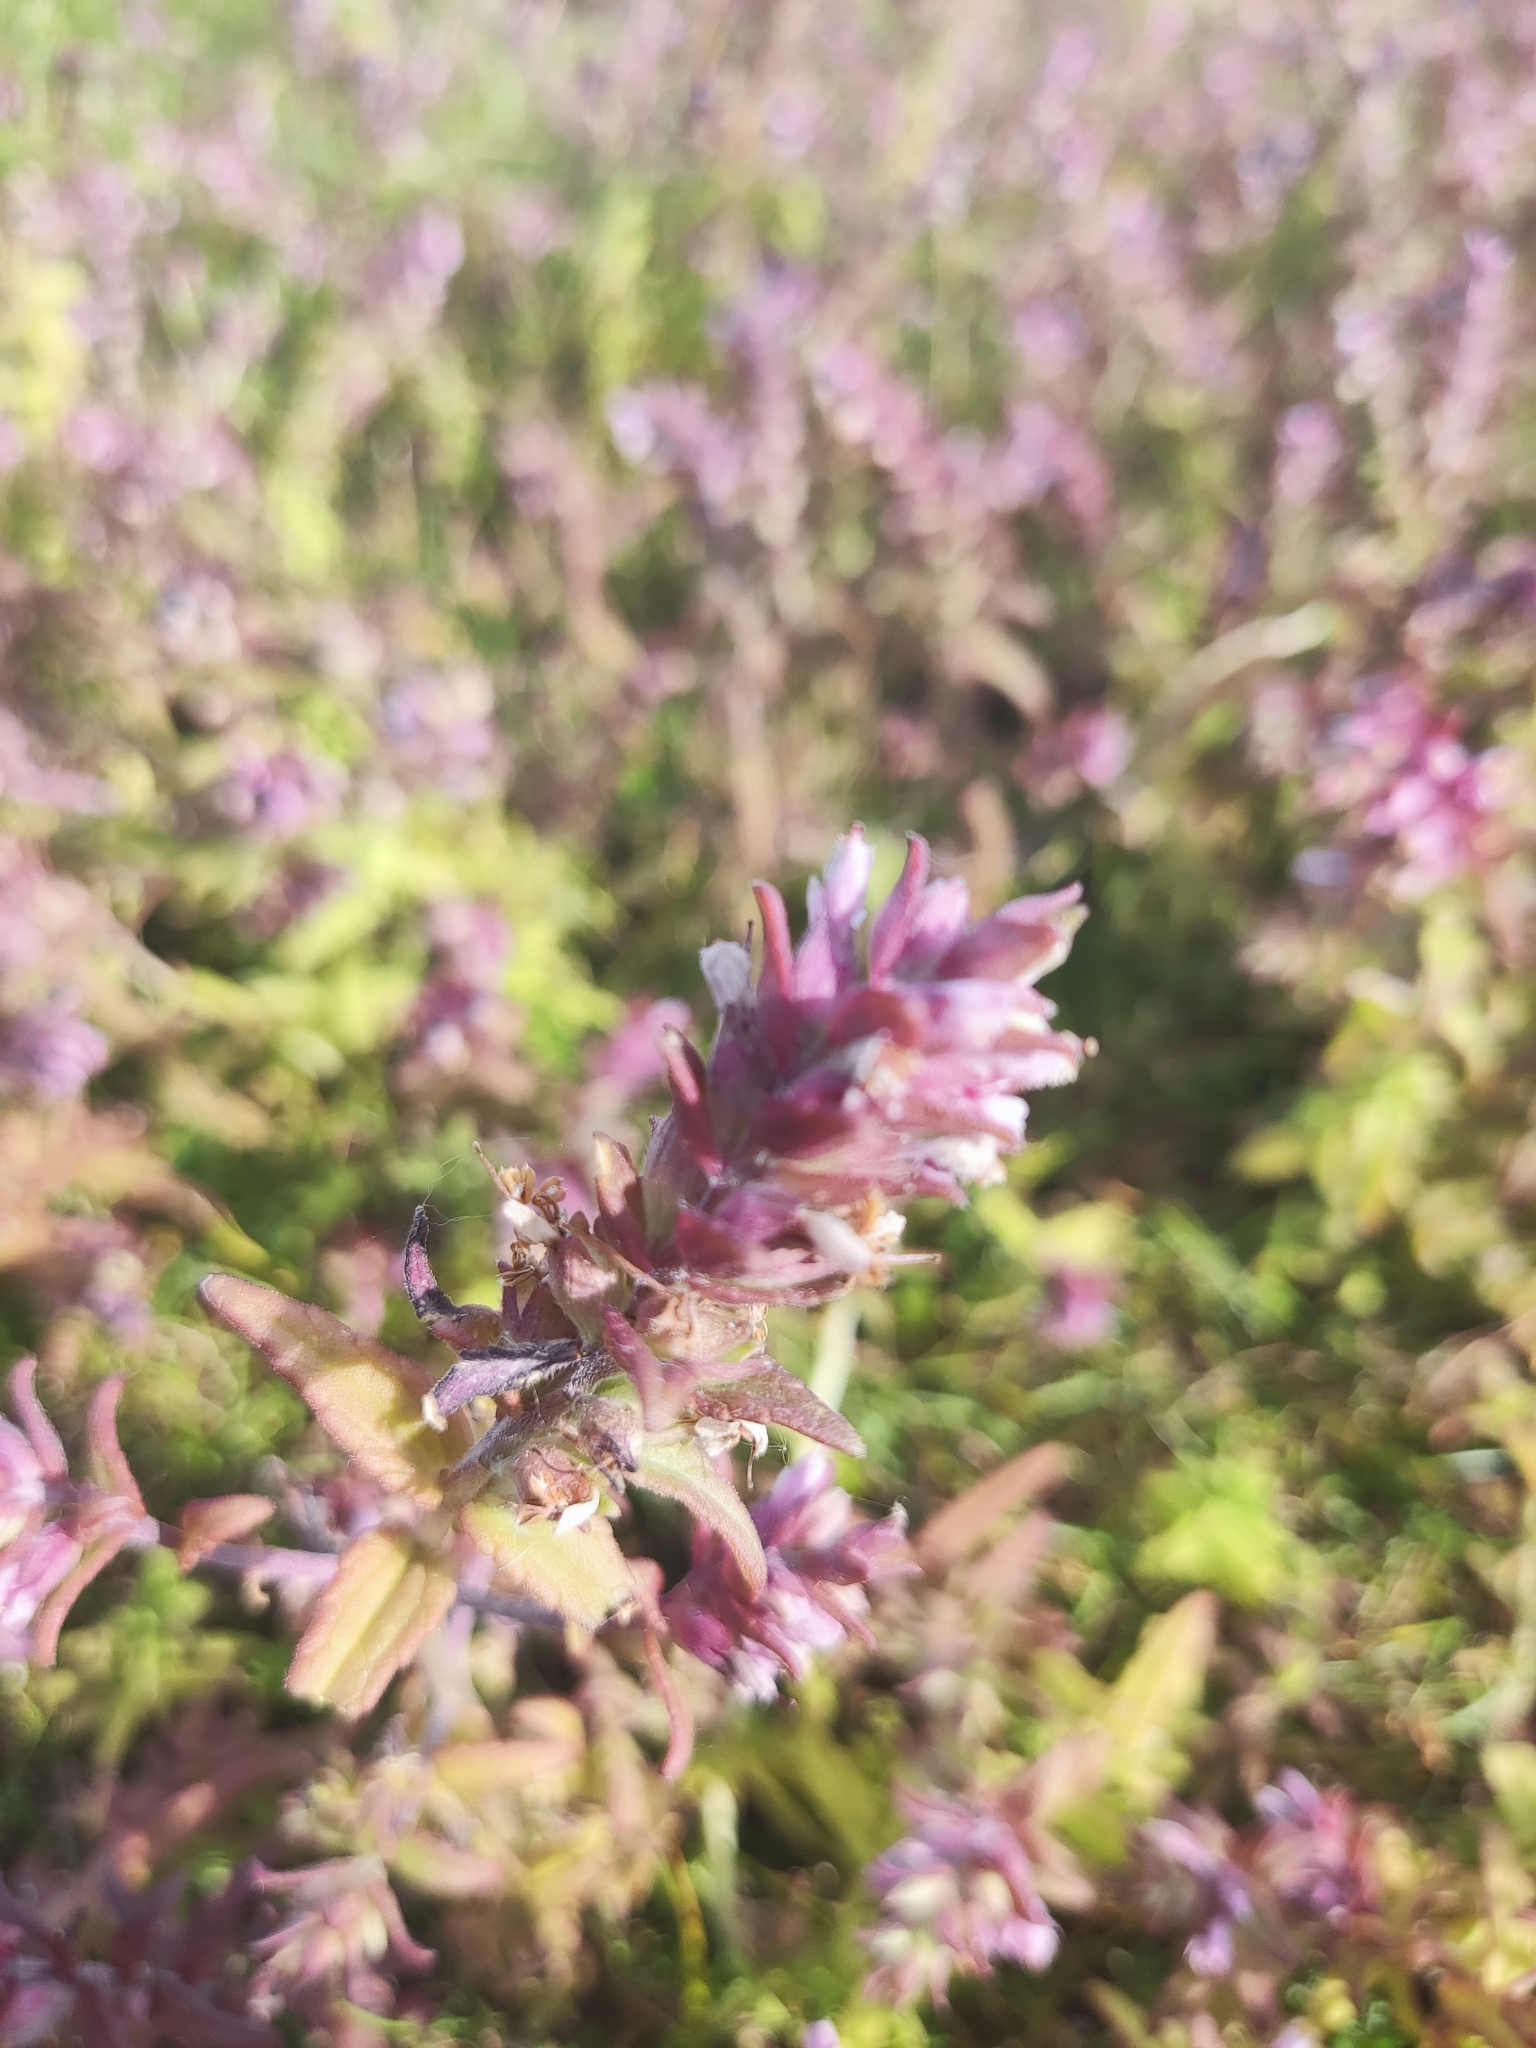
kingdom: Plantae
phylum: Tracheophyta
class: Magnoliopsida
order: Lamiales
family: Orobanchaceae
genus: Odontites
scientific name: Odontites vernus
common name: Red bartsia
